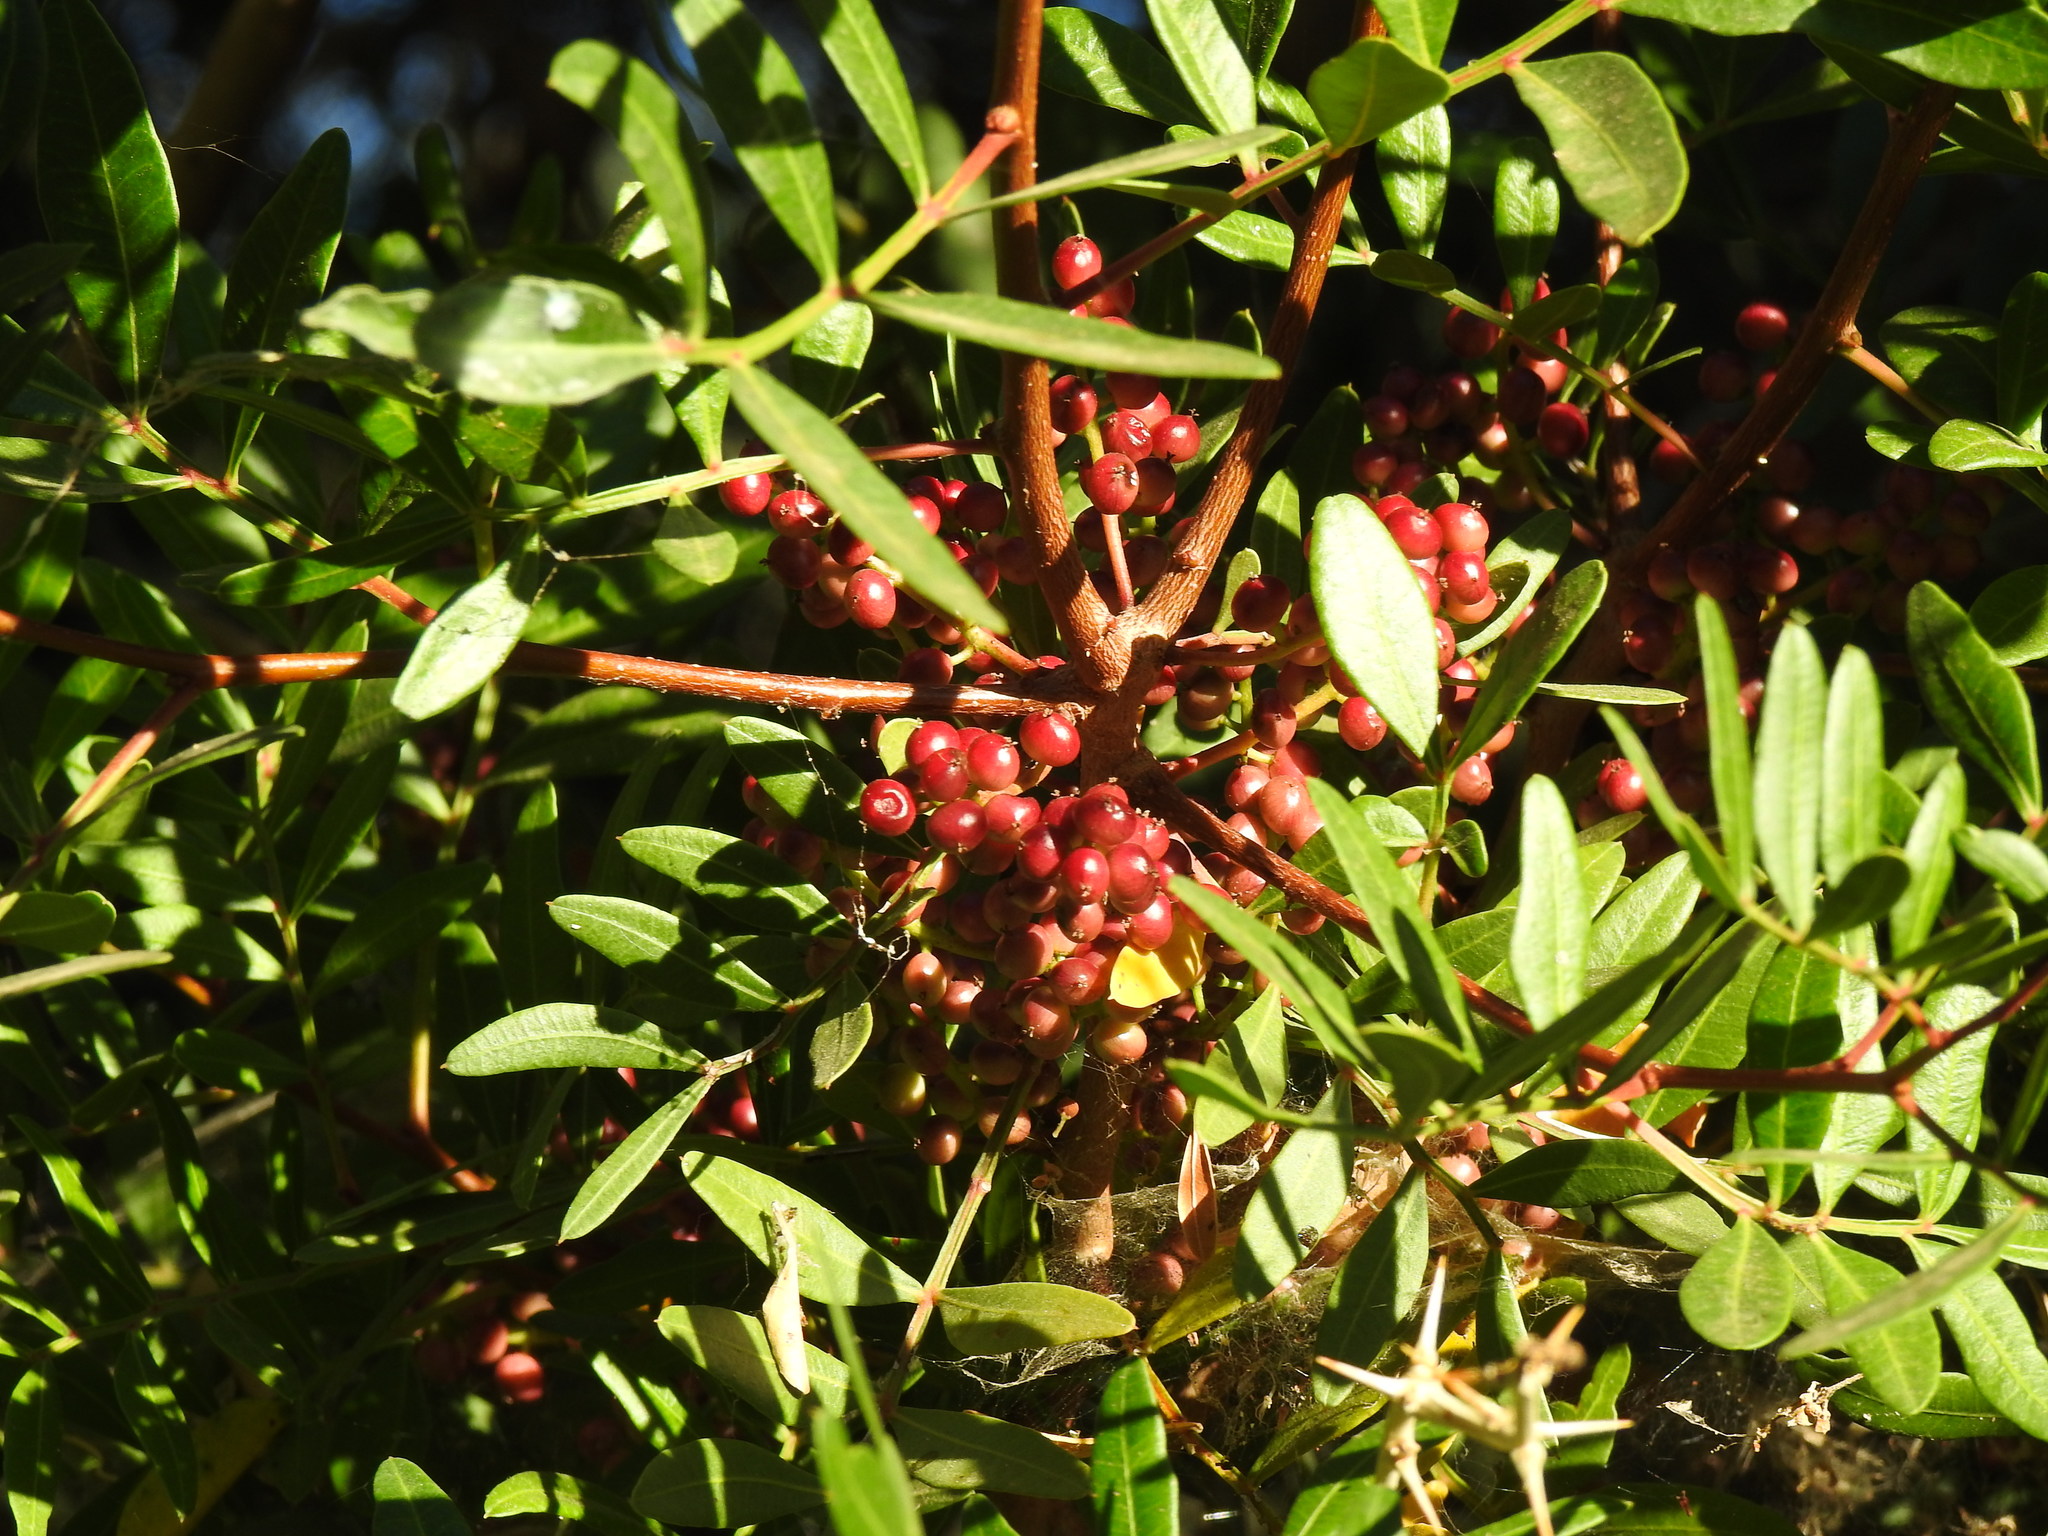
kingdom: Plantae
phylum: Tracheophyta
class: Magnoliopsida
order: Sapindales
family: Anacardiaceae
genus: Pistacia
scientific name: Pistacia lentiscus
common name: Lentisk
